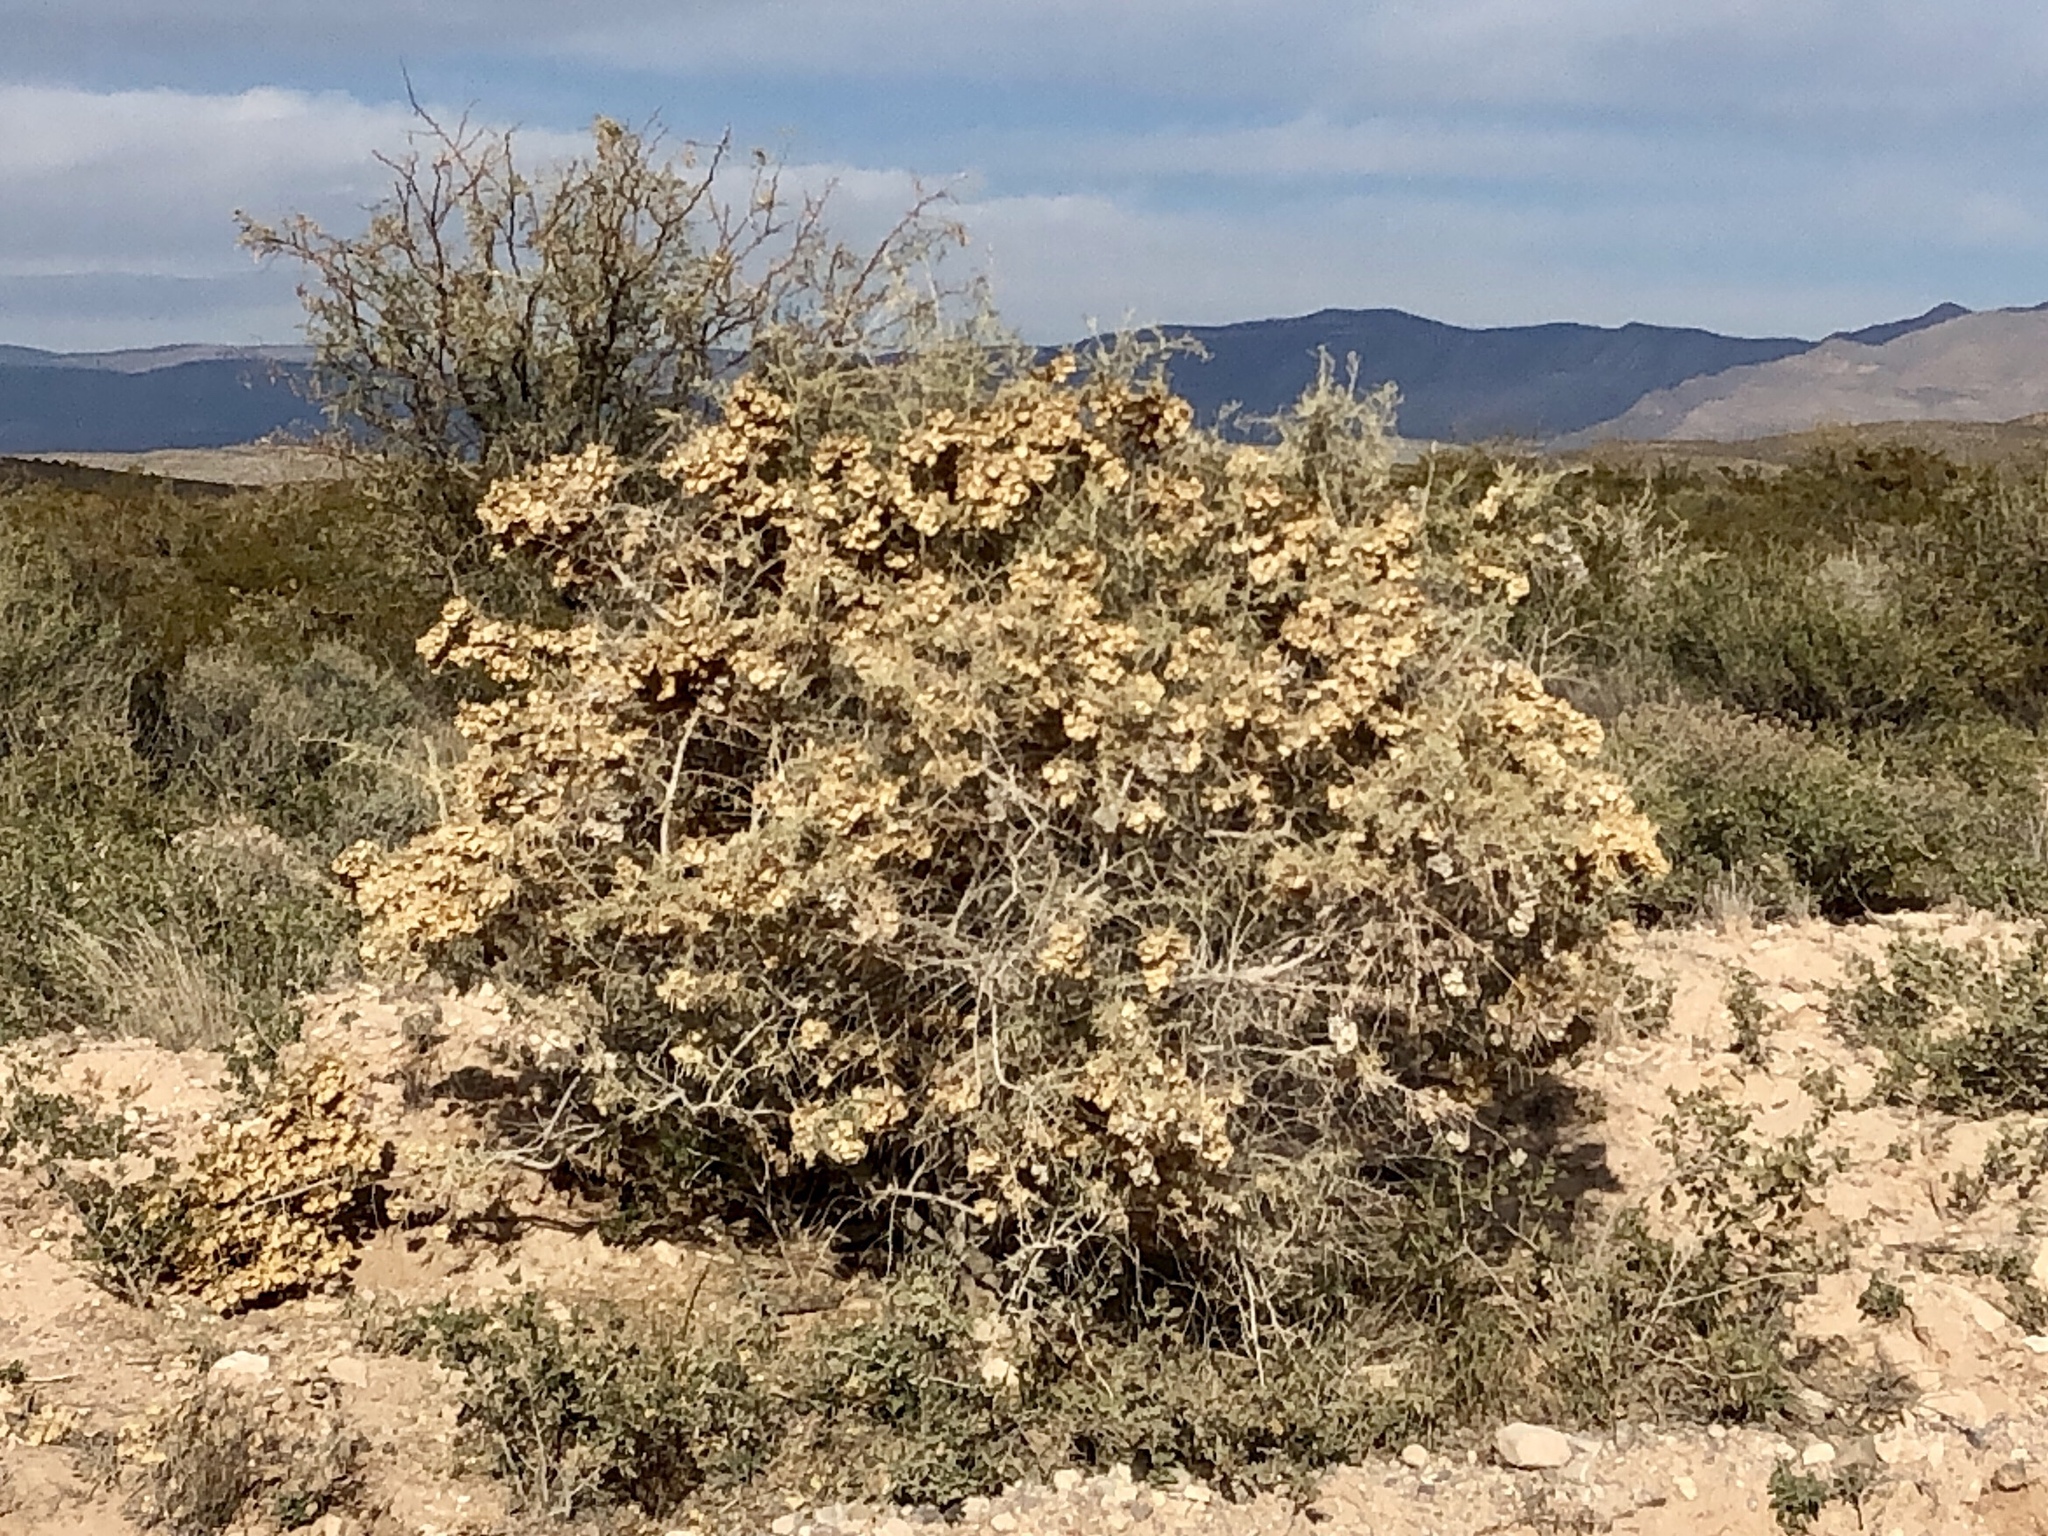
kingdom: Plantae
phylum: Tracheophyta
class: Magnoliopsida
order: Caryophyllales
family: Amaranthaceae
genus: Atriplex
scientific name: Atriplex canescens
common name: Four-wing saltbush
